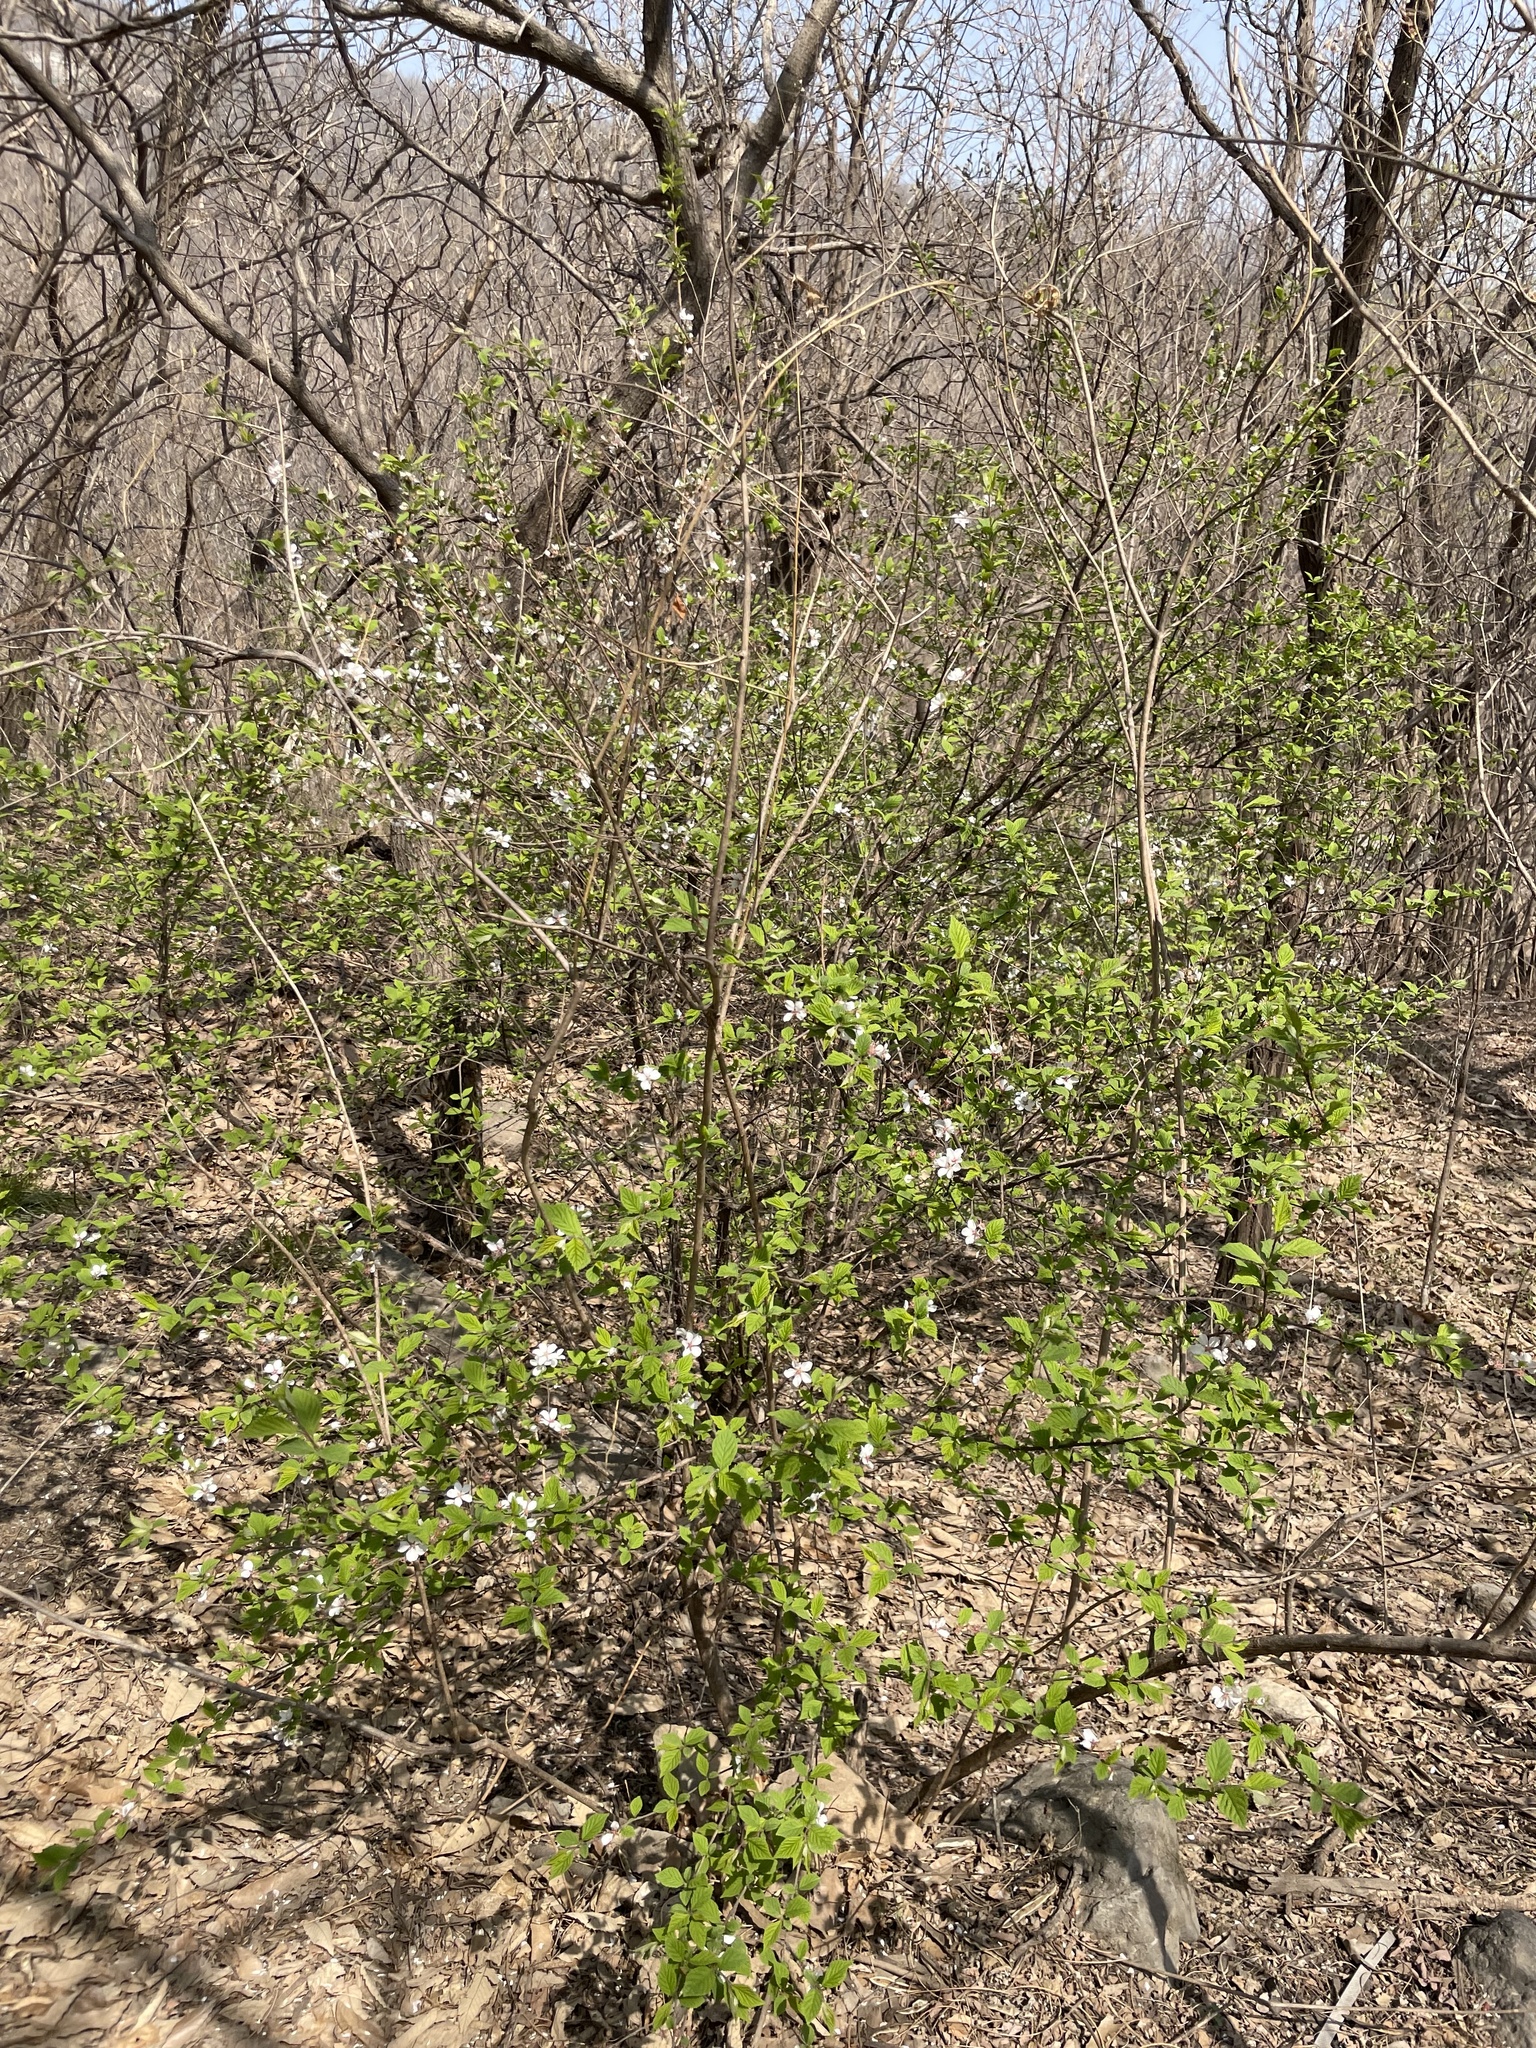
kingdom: Plantae
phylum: Tracheophyta
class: Magnoliopsida
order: Rosales
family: Rosaceae
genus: Prunus
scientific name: Prunus tomentosa
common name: Nanking cherry
